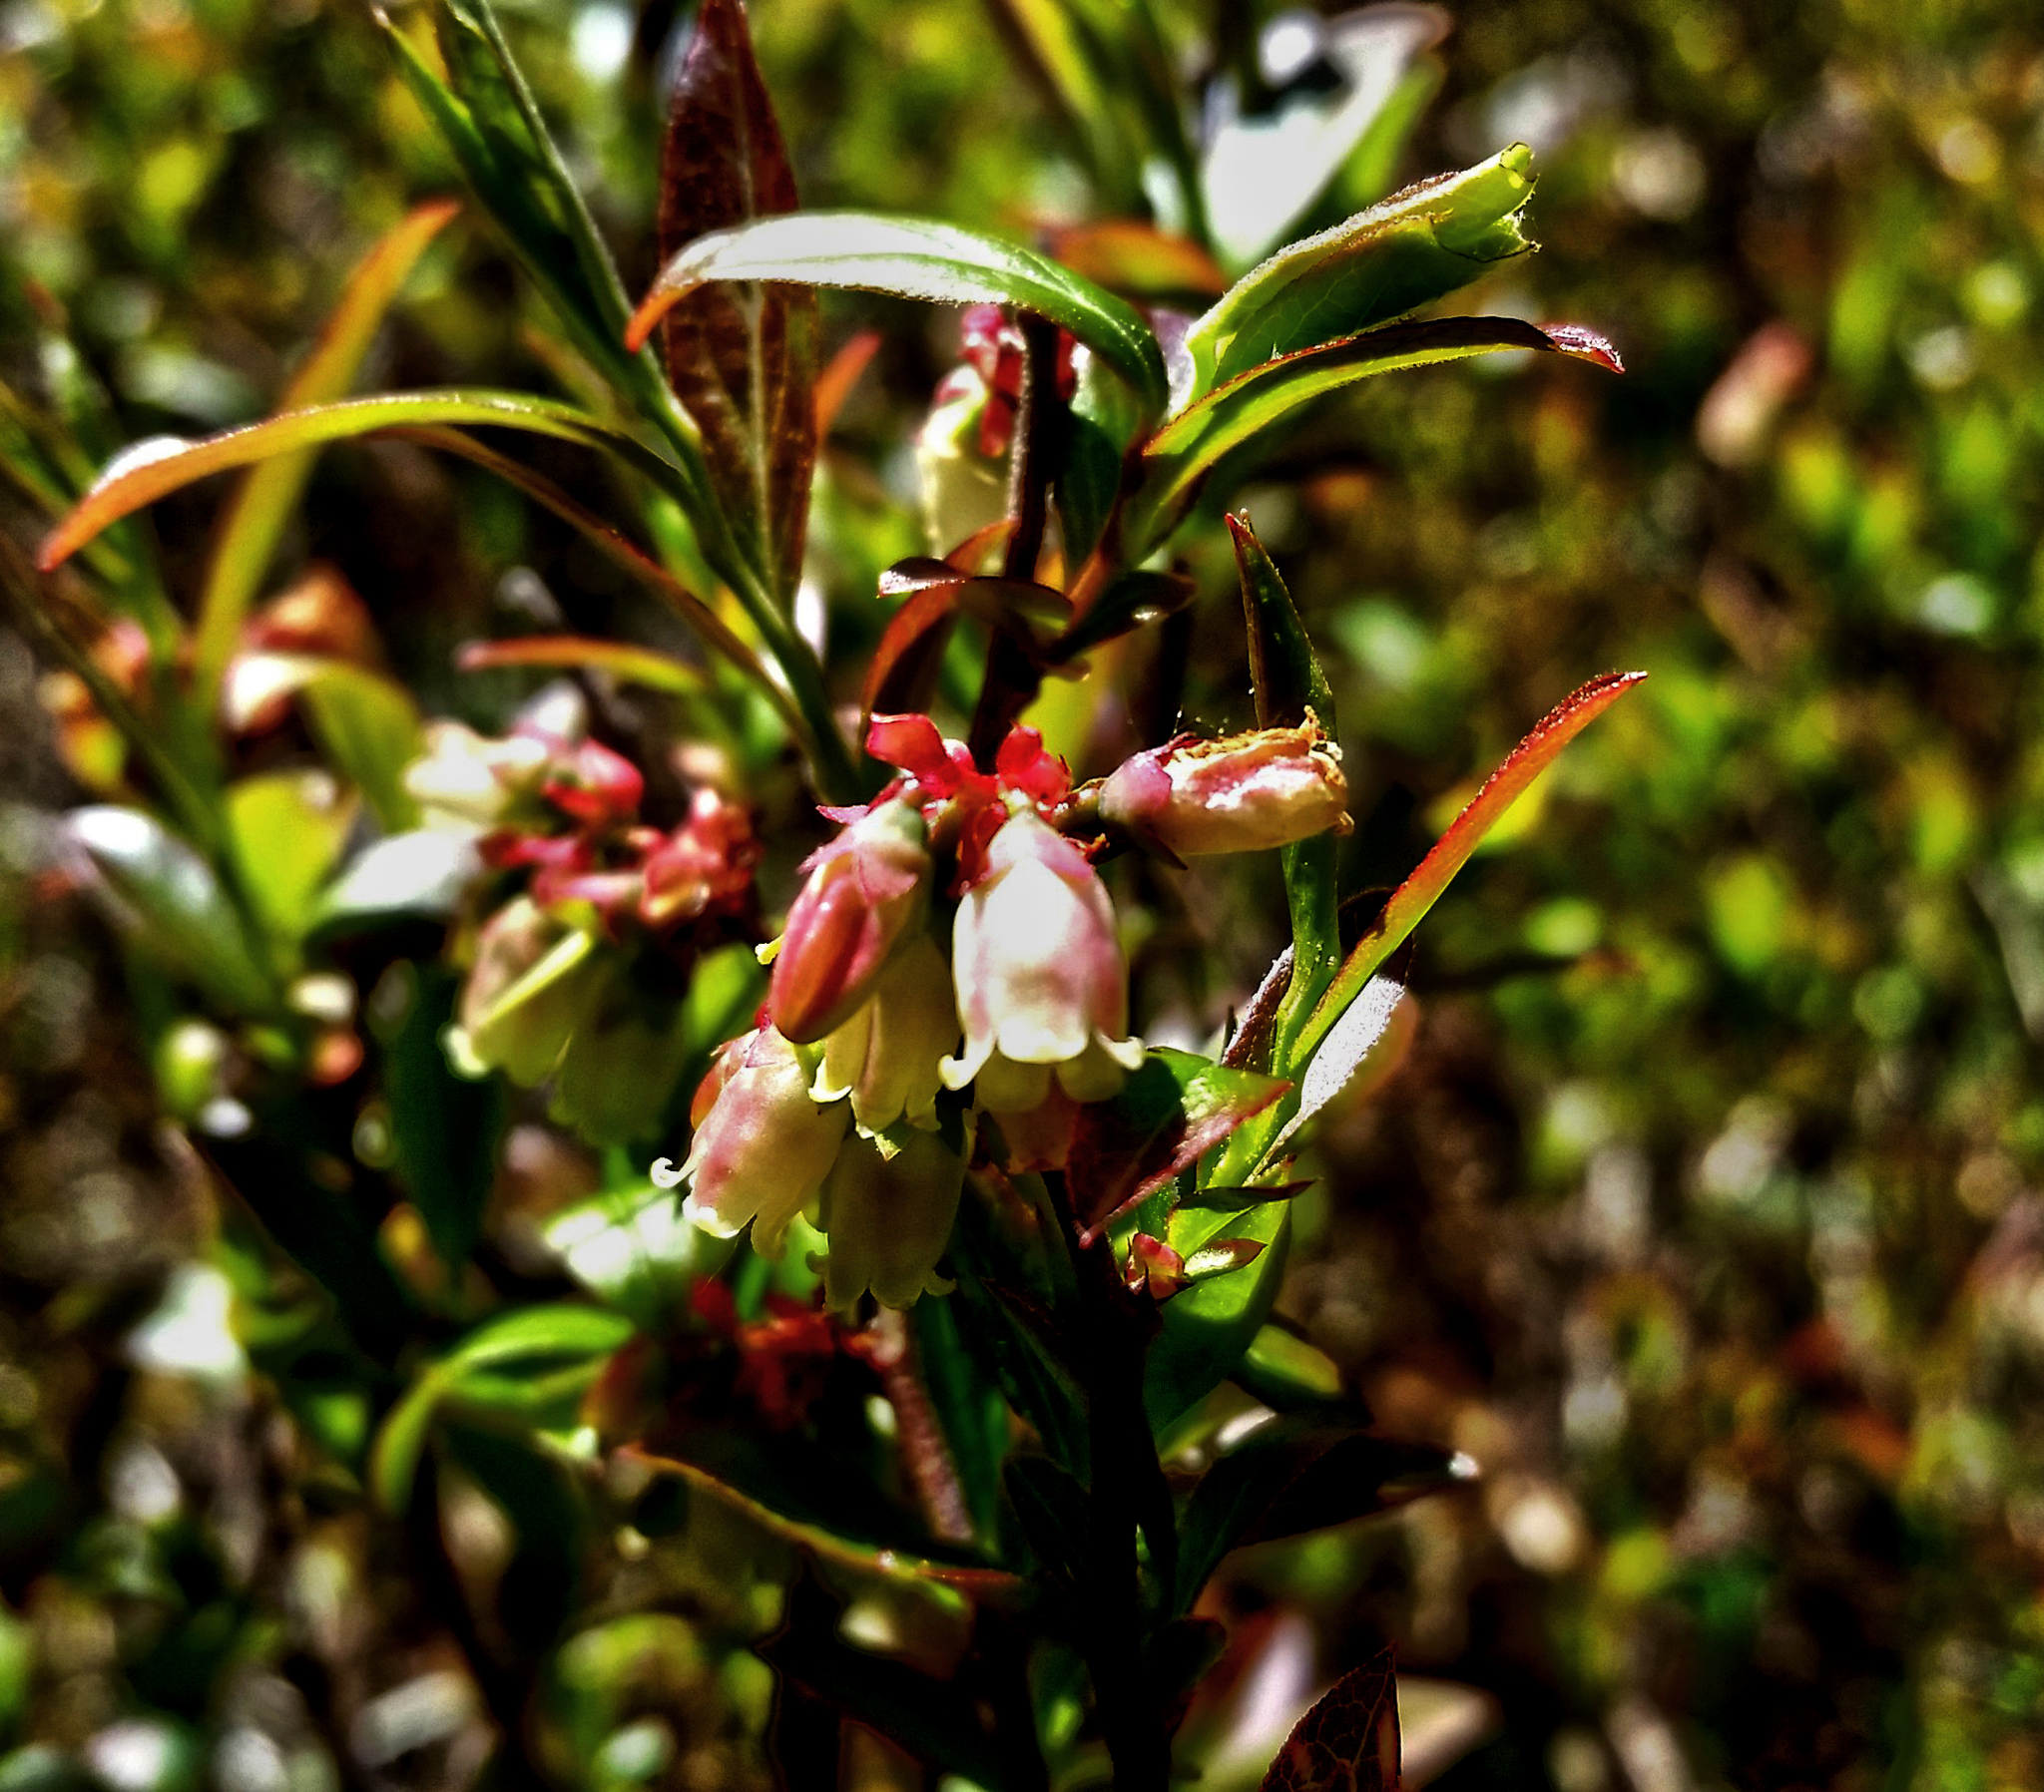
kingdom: Plantae
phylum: Tracheophyta
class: Magnoliopsida
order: Ericales
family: Ericaceae
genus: Vaccinium
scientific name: Vaccinium angustifolium
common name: Early lowbush blueberry
